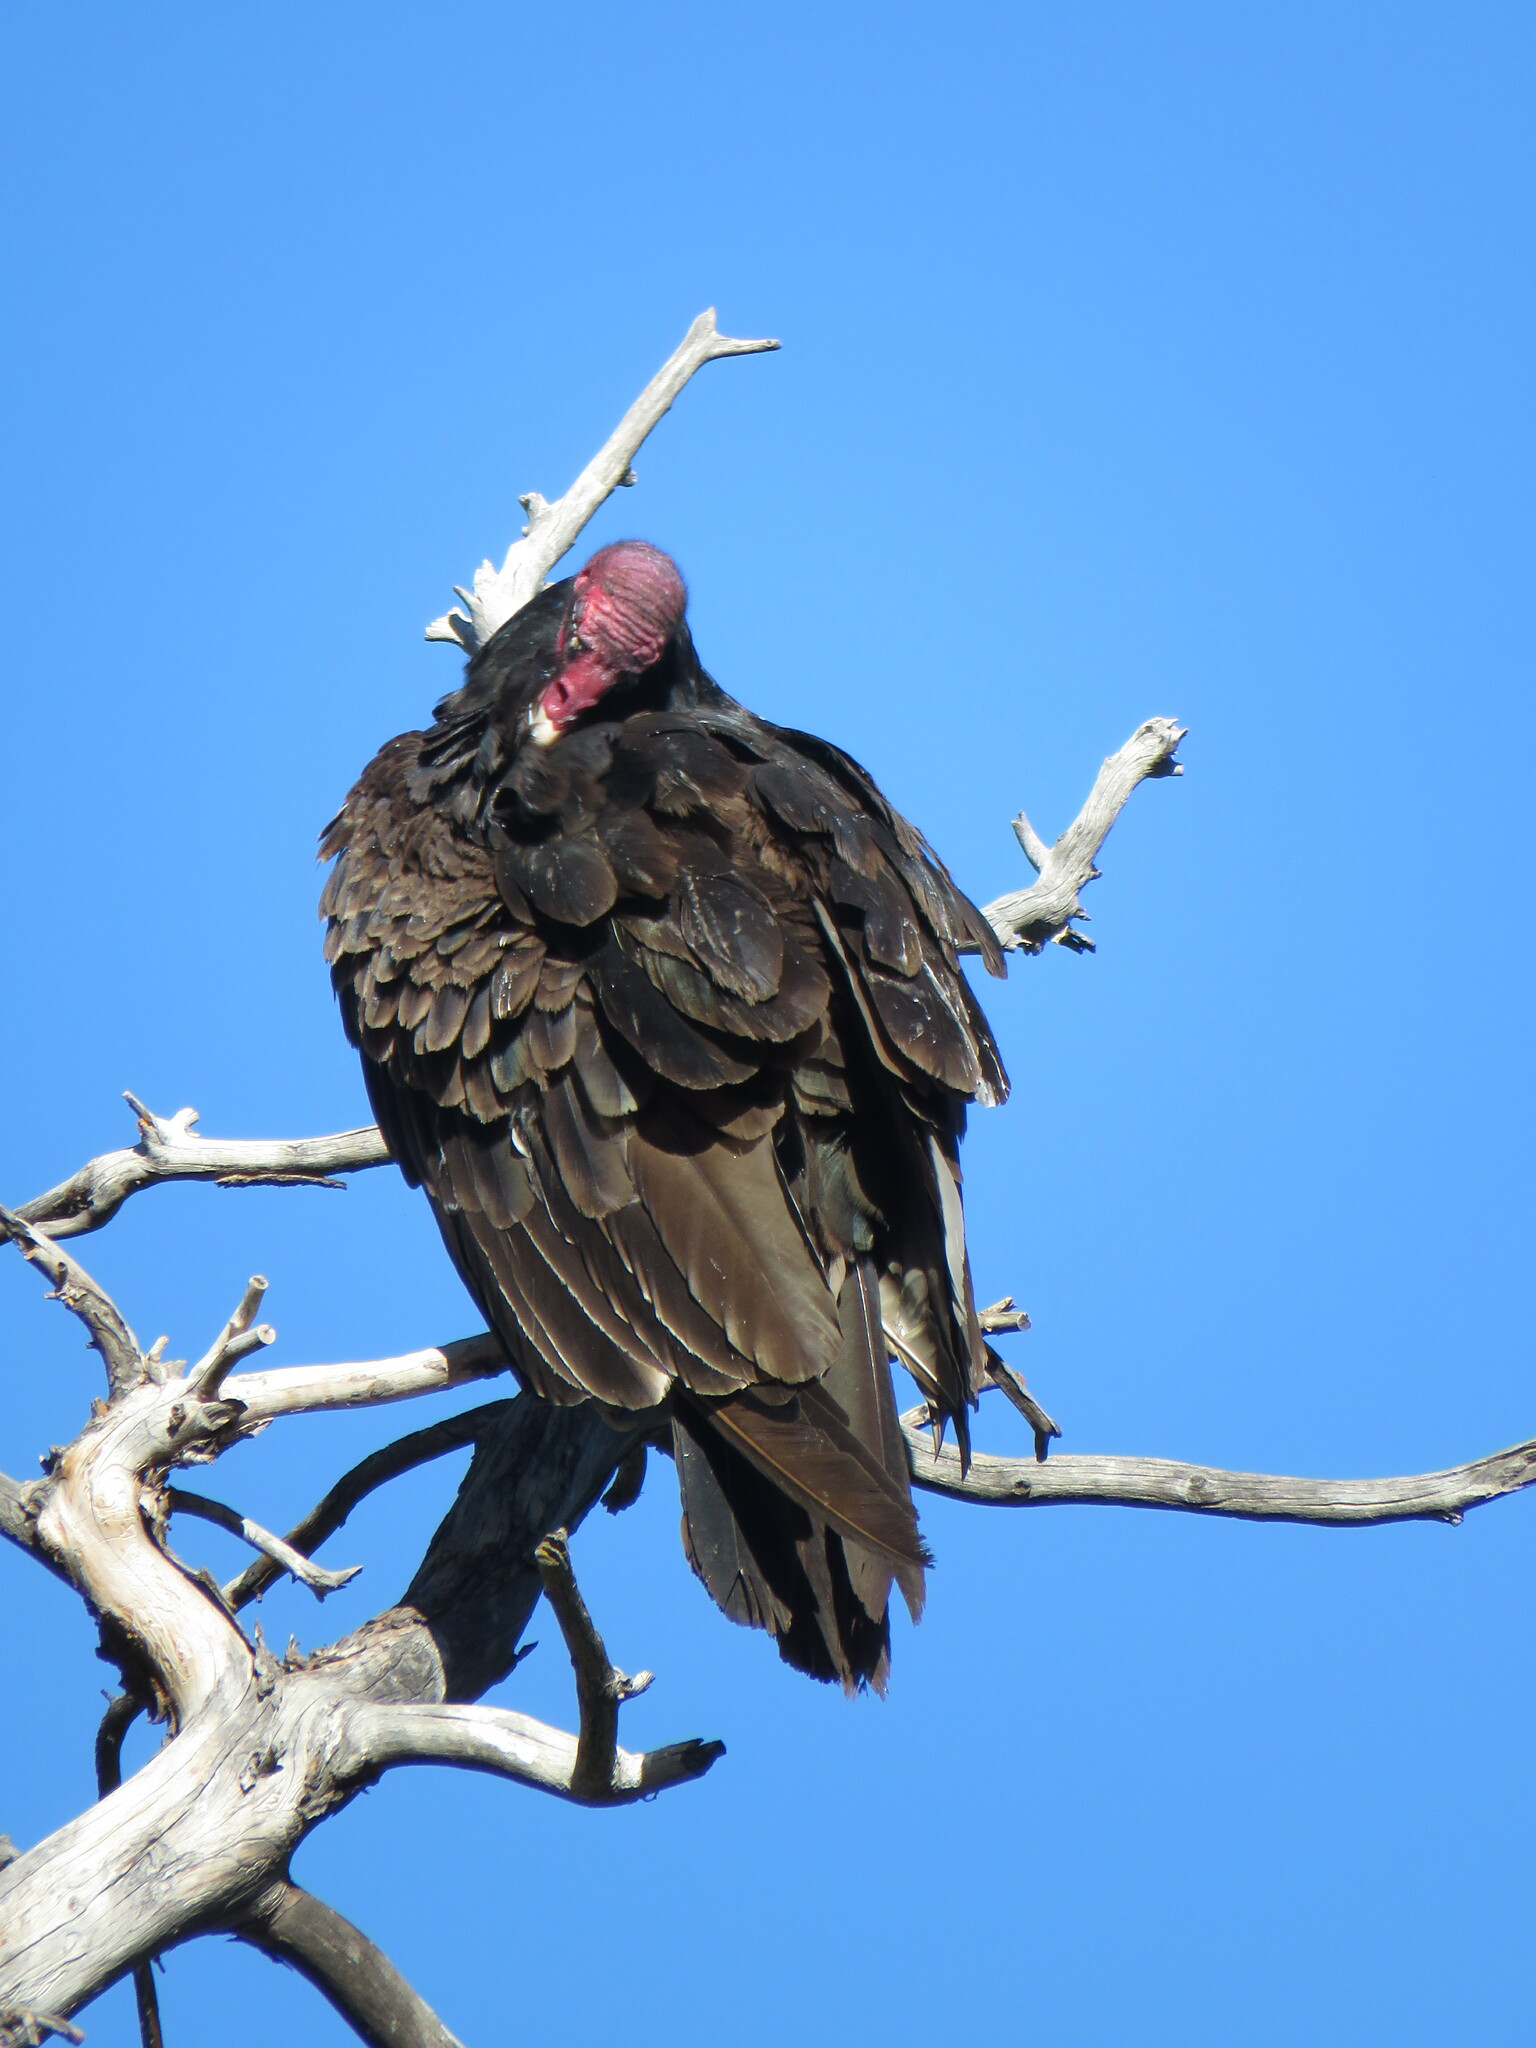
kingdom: Animalia
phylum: Chordata
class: Aves
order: Accipitriformes
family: Cathartidae
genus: Cathartes
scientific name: Cathartes aura
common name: Turkey vulture
